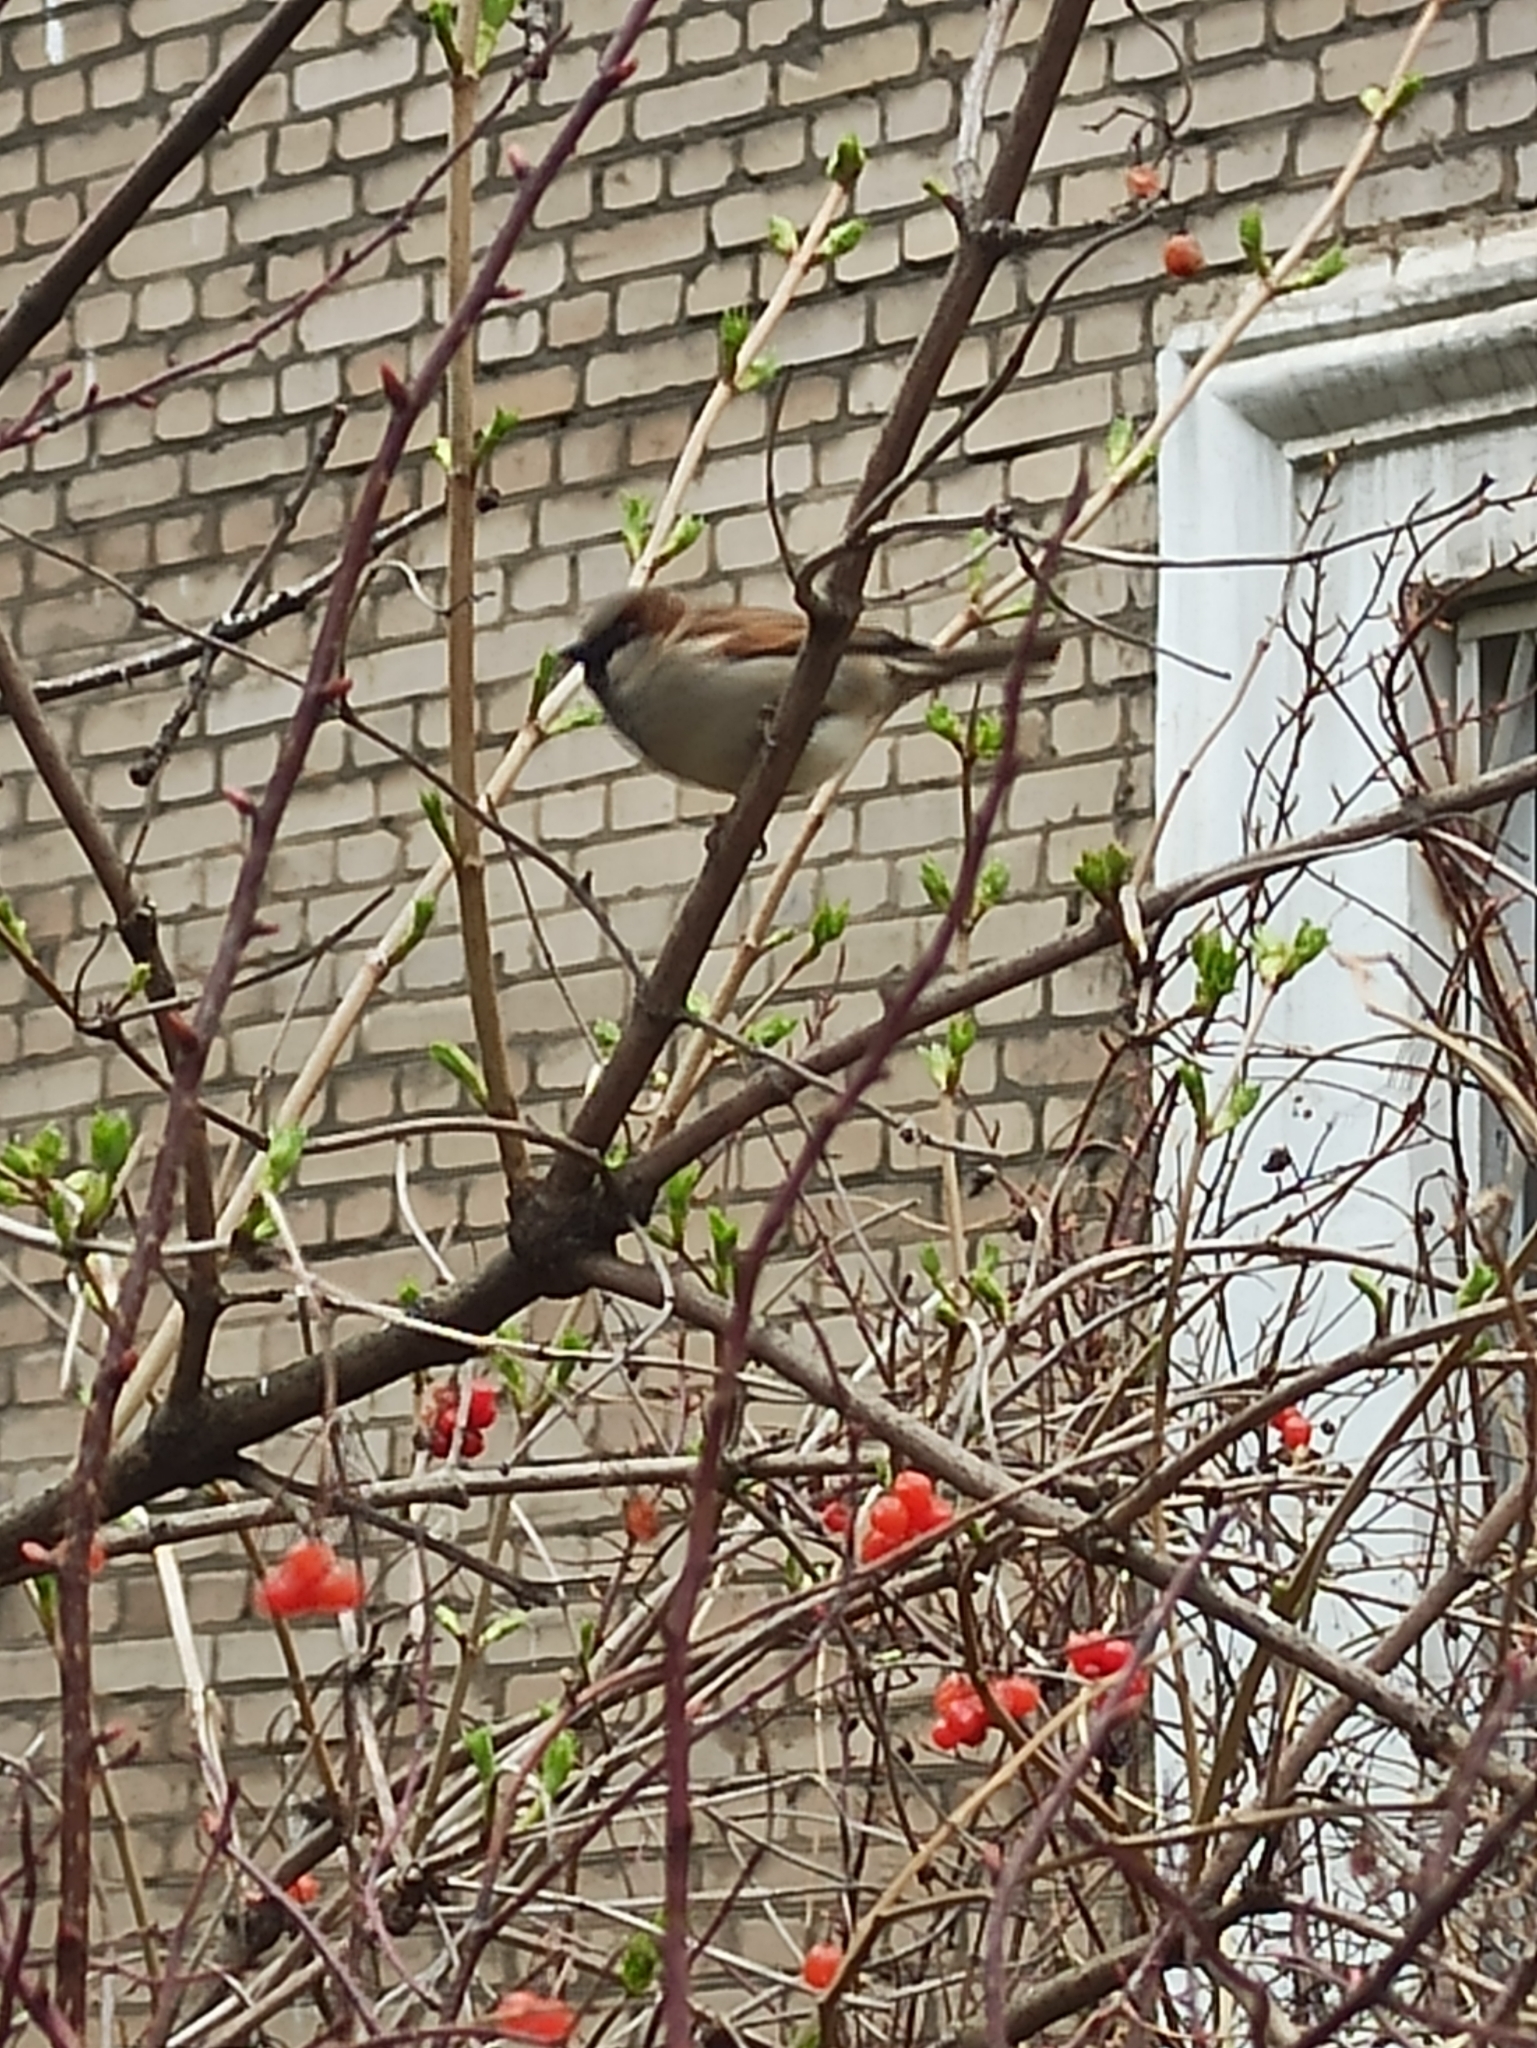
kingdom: Animalia
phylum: Chordata
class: Aves
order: Passeriformes
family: Passeridae
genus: Passer
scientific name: Passer domesticus
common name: House sparrow
